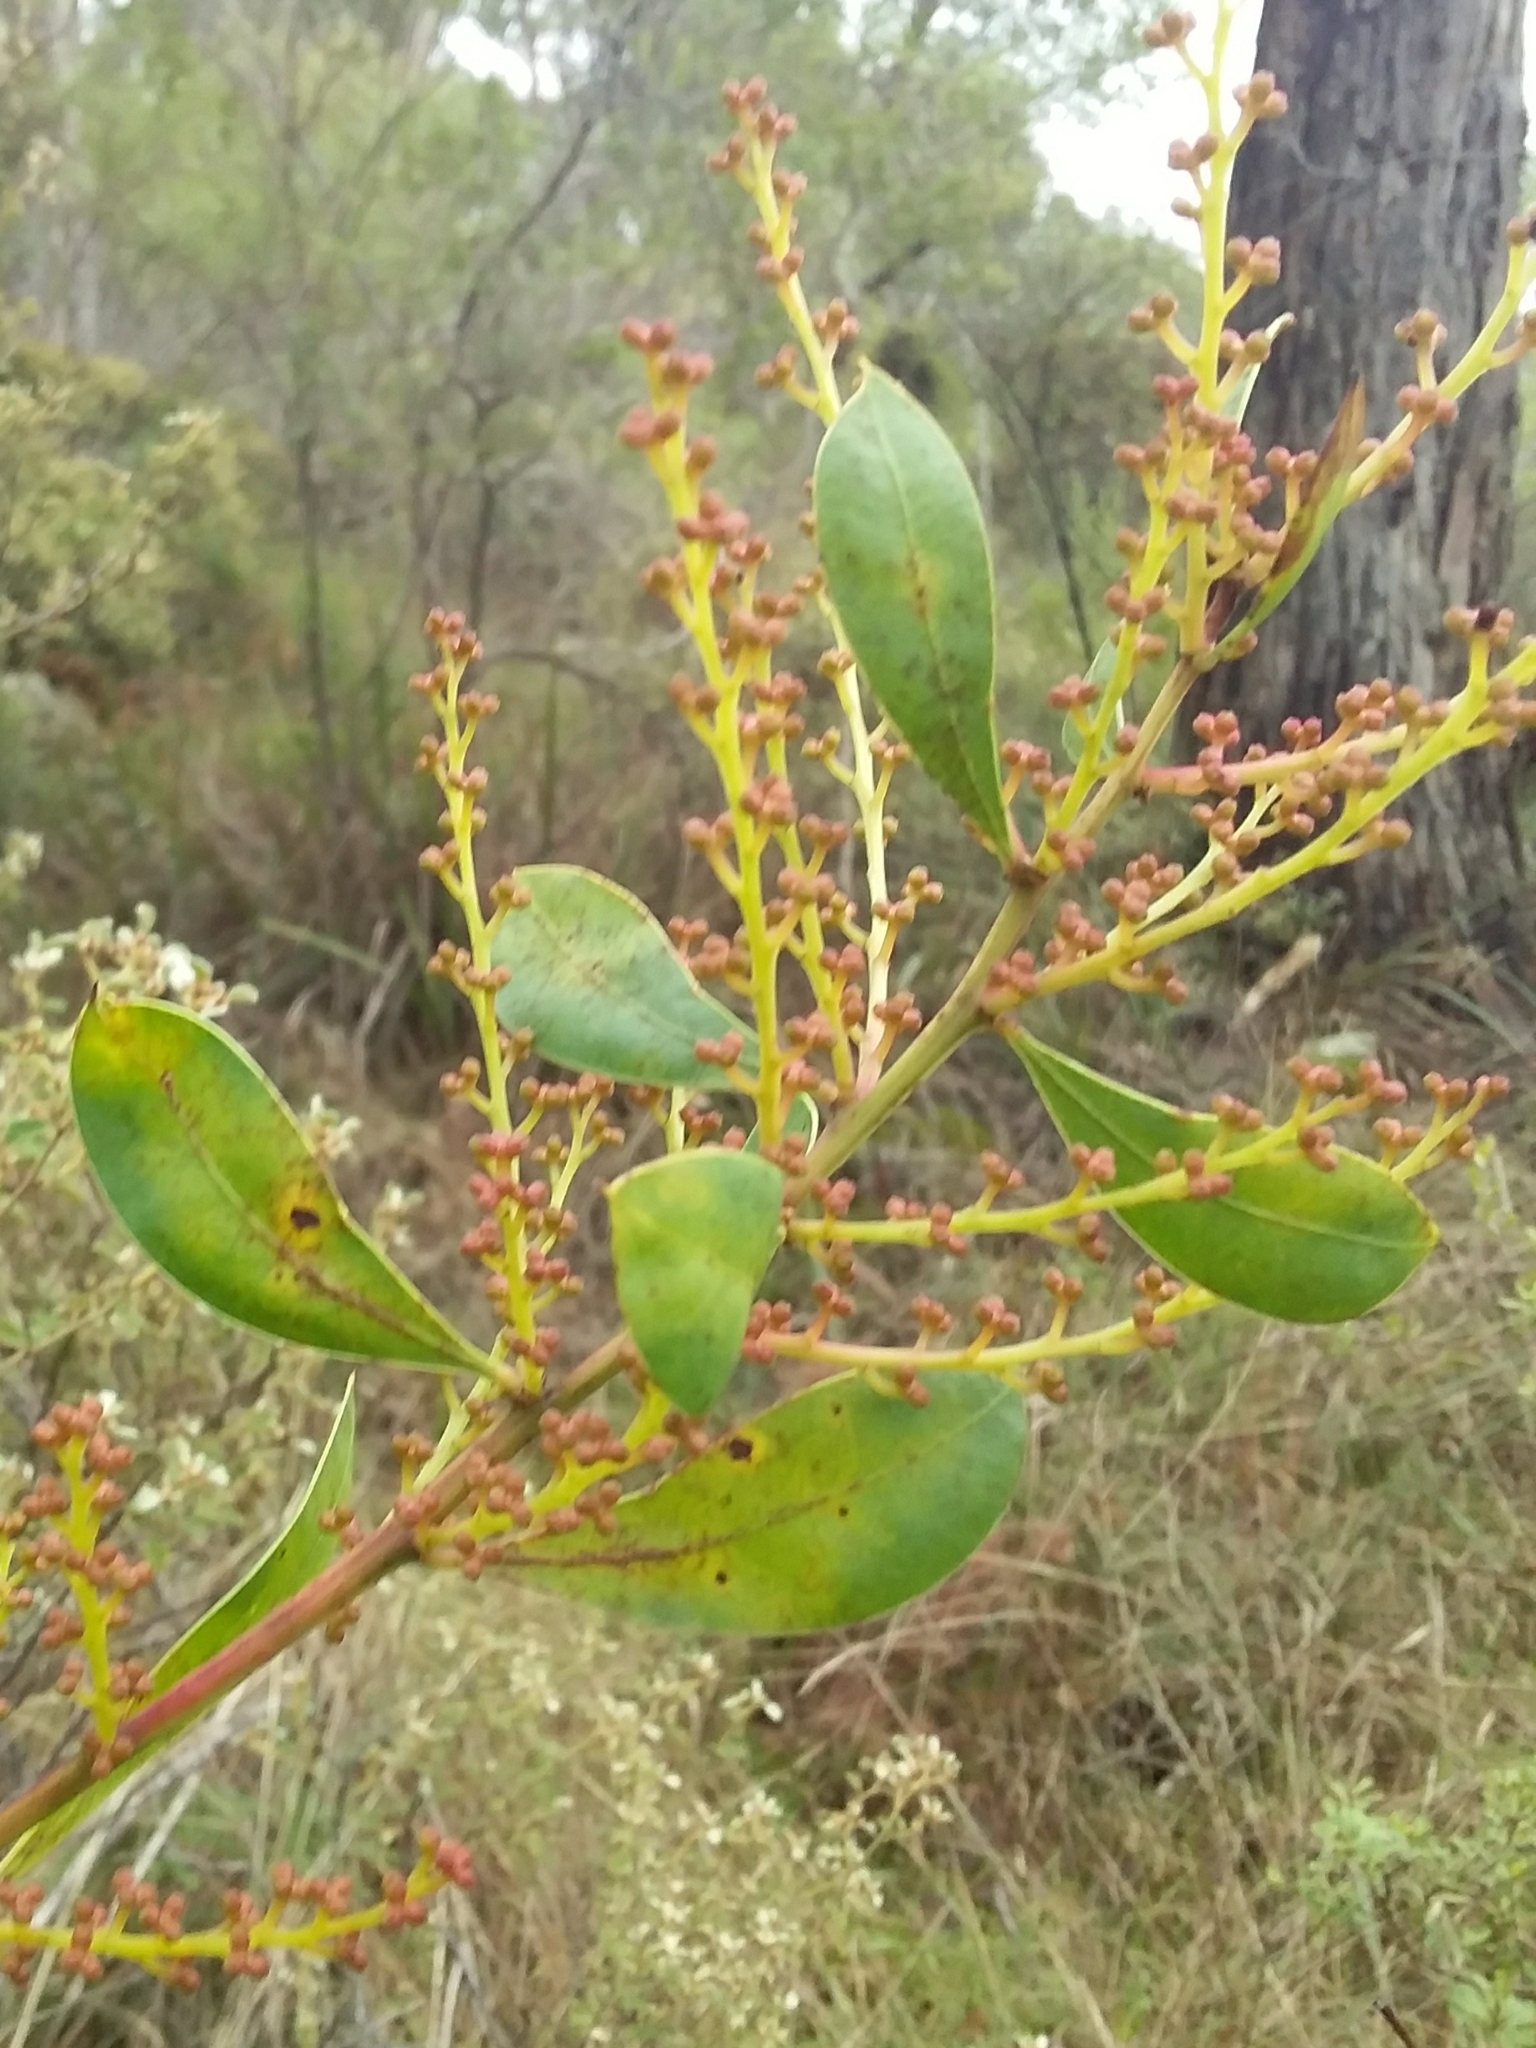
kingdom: Plantae
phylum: Tracheophyta
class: Magnoliopsida
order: Fabales
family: Fabaceae
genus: Acacia
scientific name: Acacia myrtifolia
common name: Myrtle wattle
